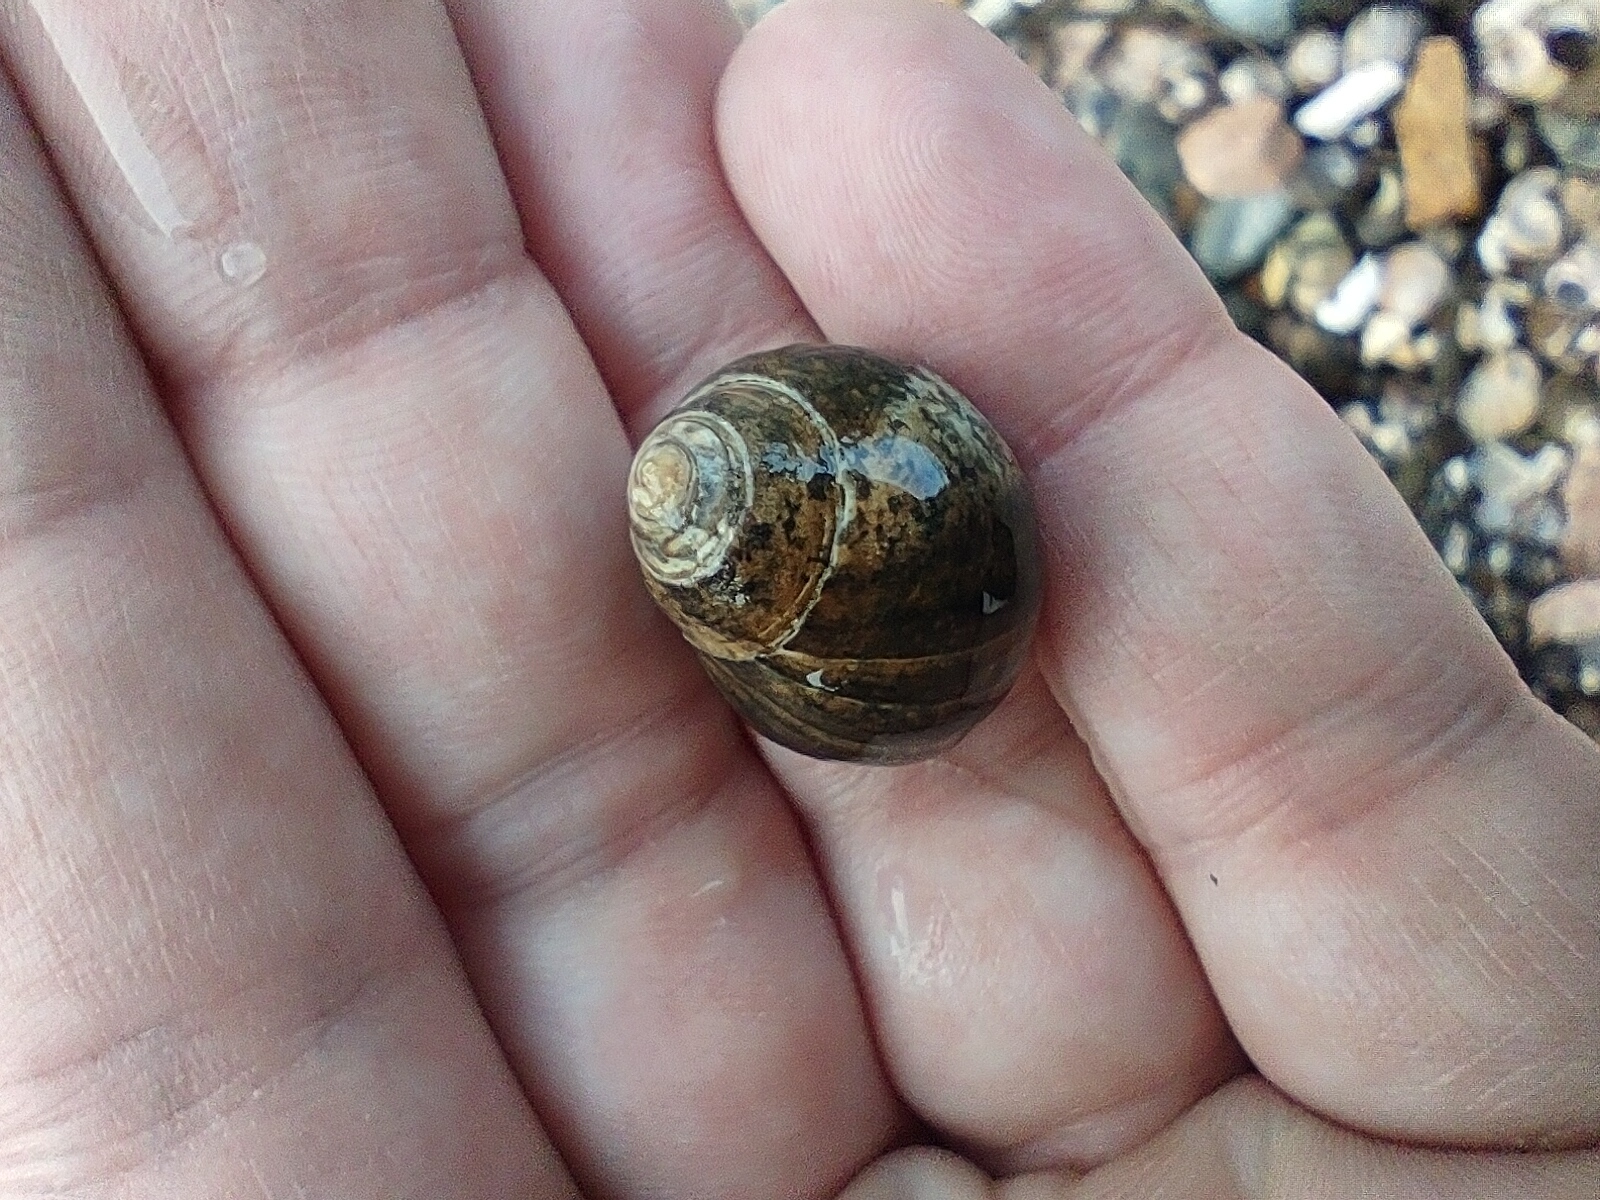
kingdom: Animalia
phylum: Mollusca
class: Gastropoda
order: Littorinimorpha
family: Littorinidae
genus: Littorina
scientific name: Littorina littorea
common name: Common periwinkle
